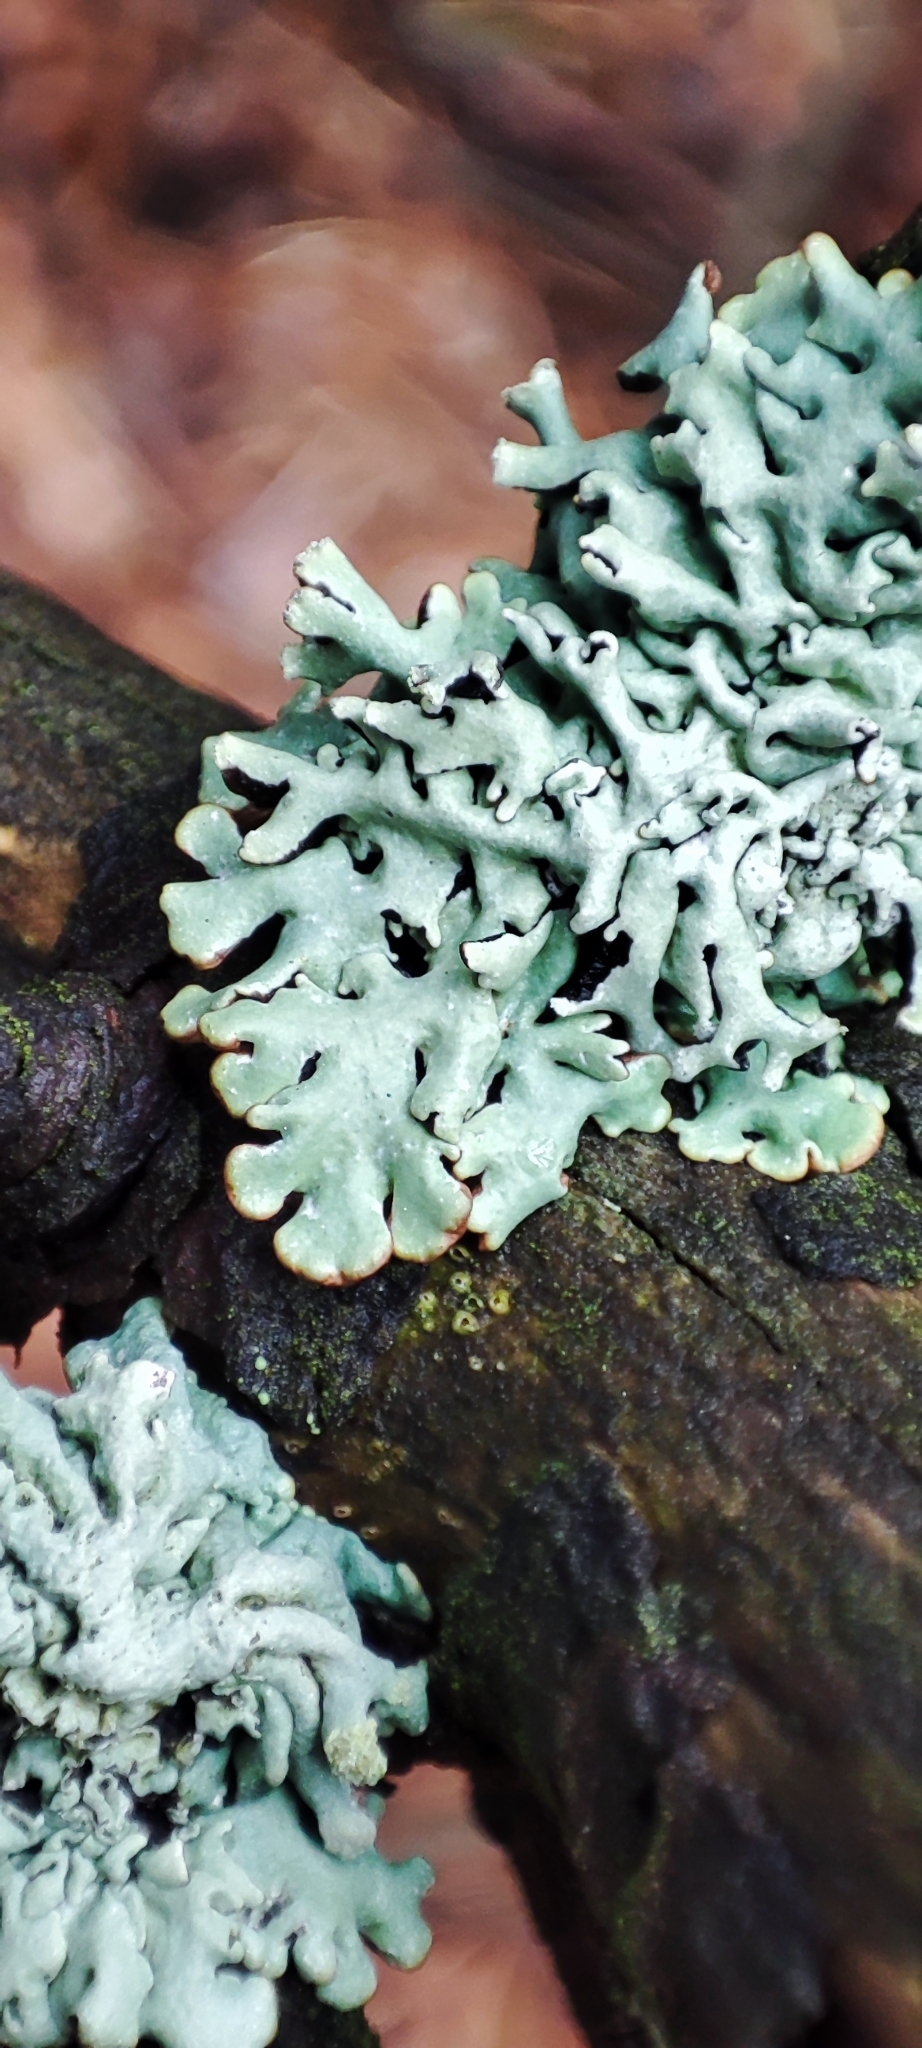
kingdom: Fungi
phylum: Ascomycota
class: Lecanoromycetes
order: Lecanorales
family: Parmeliaceae
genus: Hypogymnia
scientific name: Hypogymnia physodes
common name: Dark crottle
